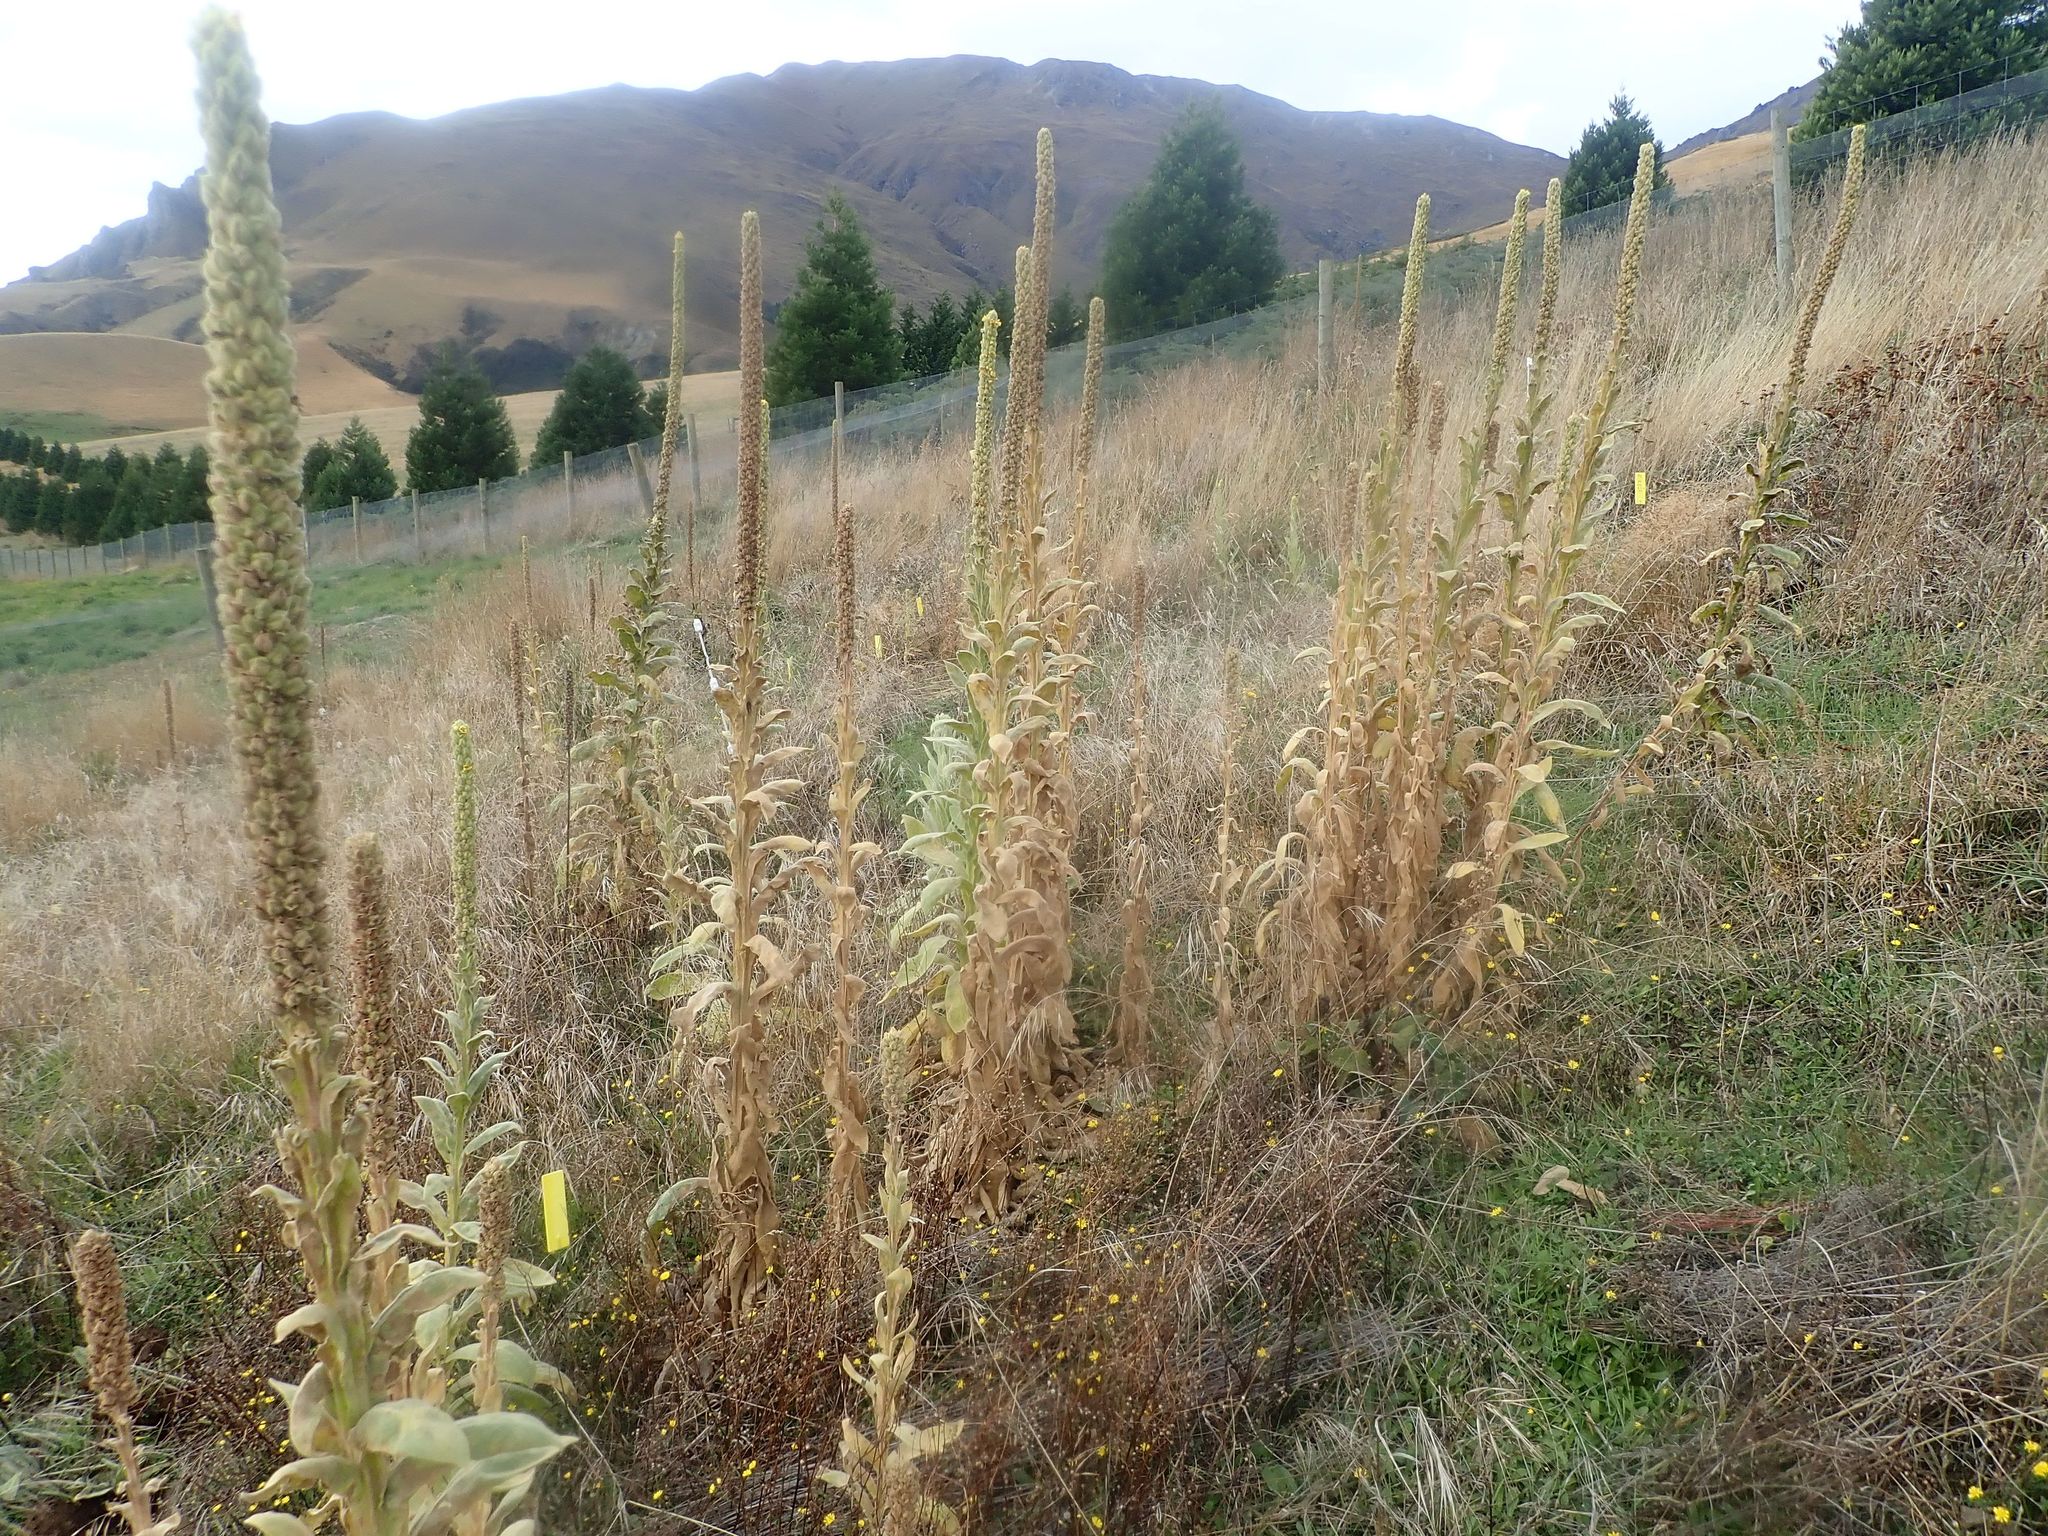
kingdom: Plantae
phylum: Tracheophyta
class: Magnoliopsida
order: Lamiales
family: Scrophulariaceae
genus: Verbascum
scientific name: Verbascum thapsus
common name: Common mullein
